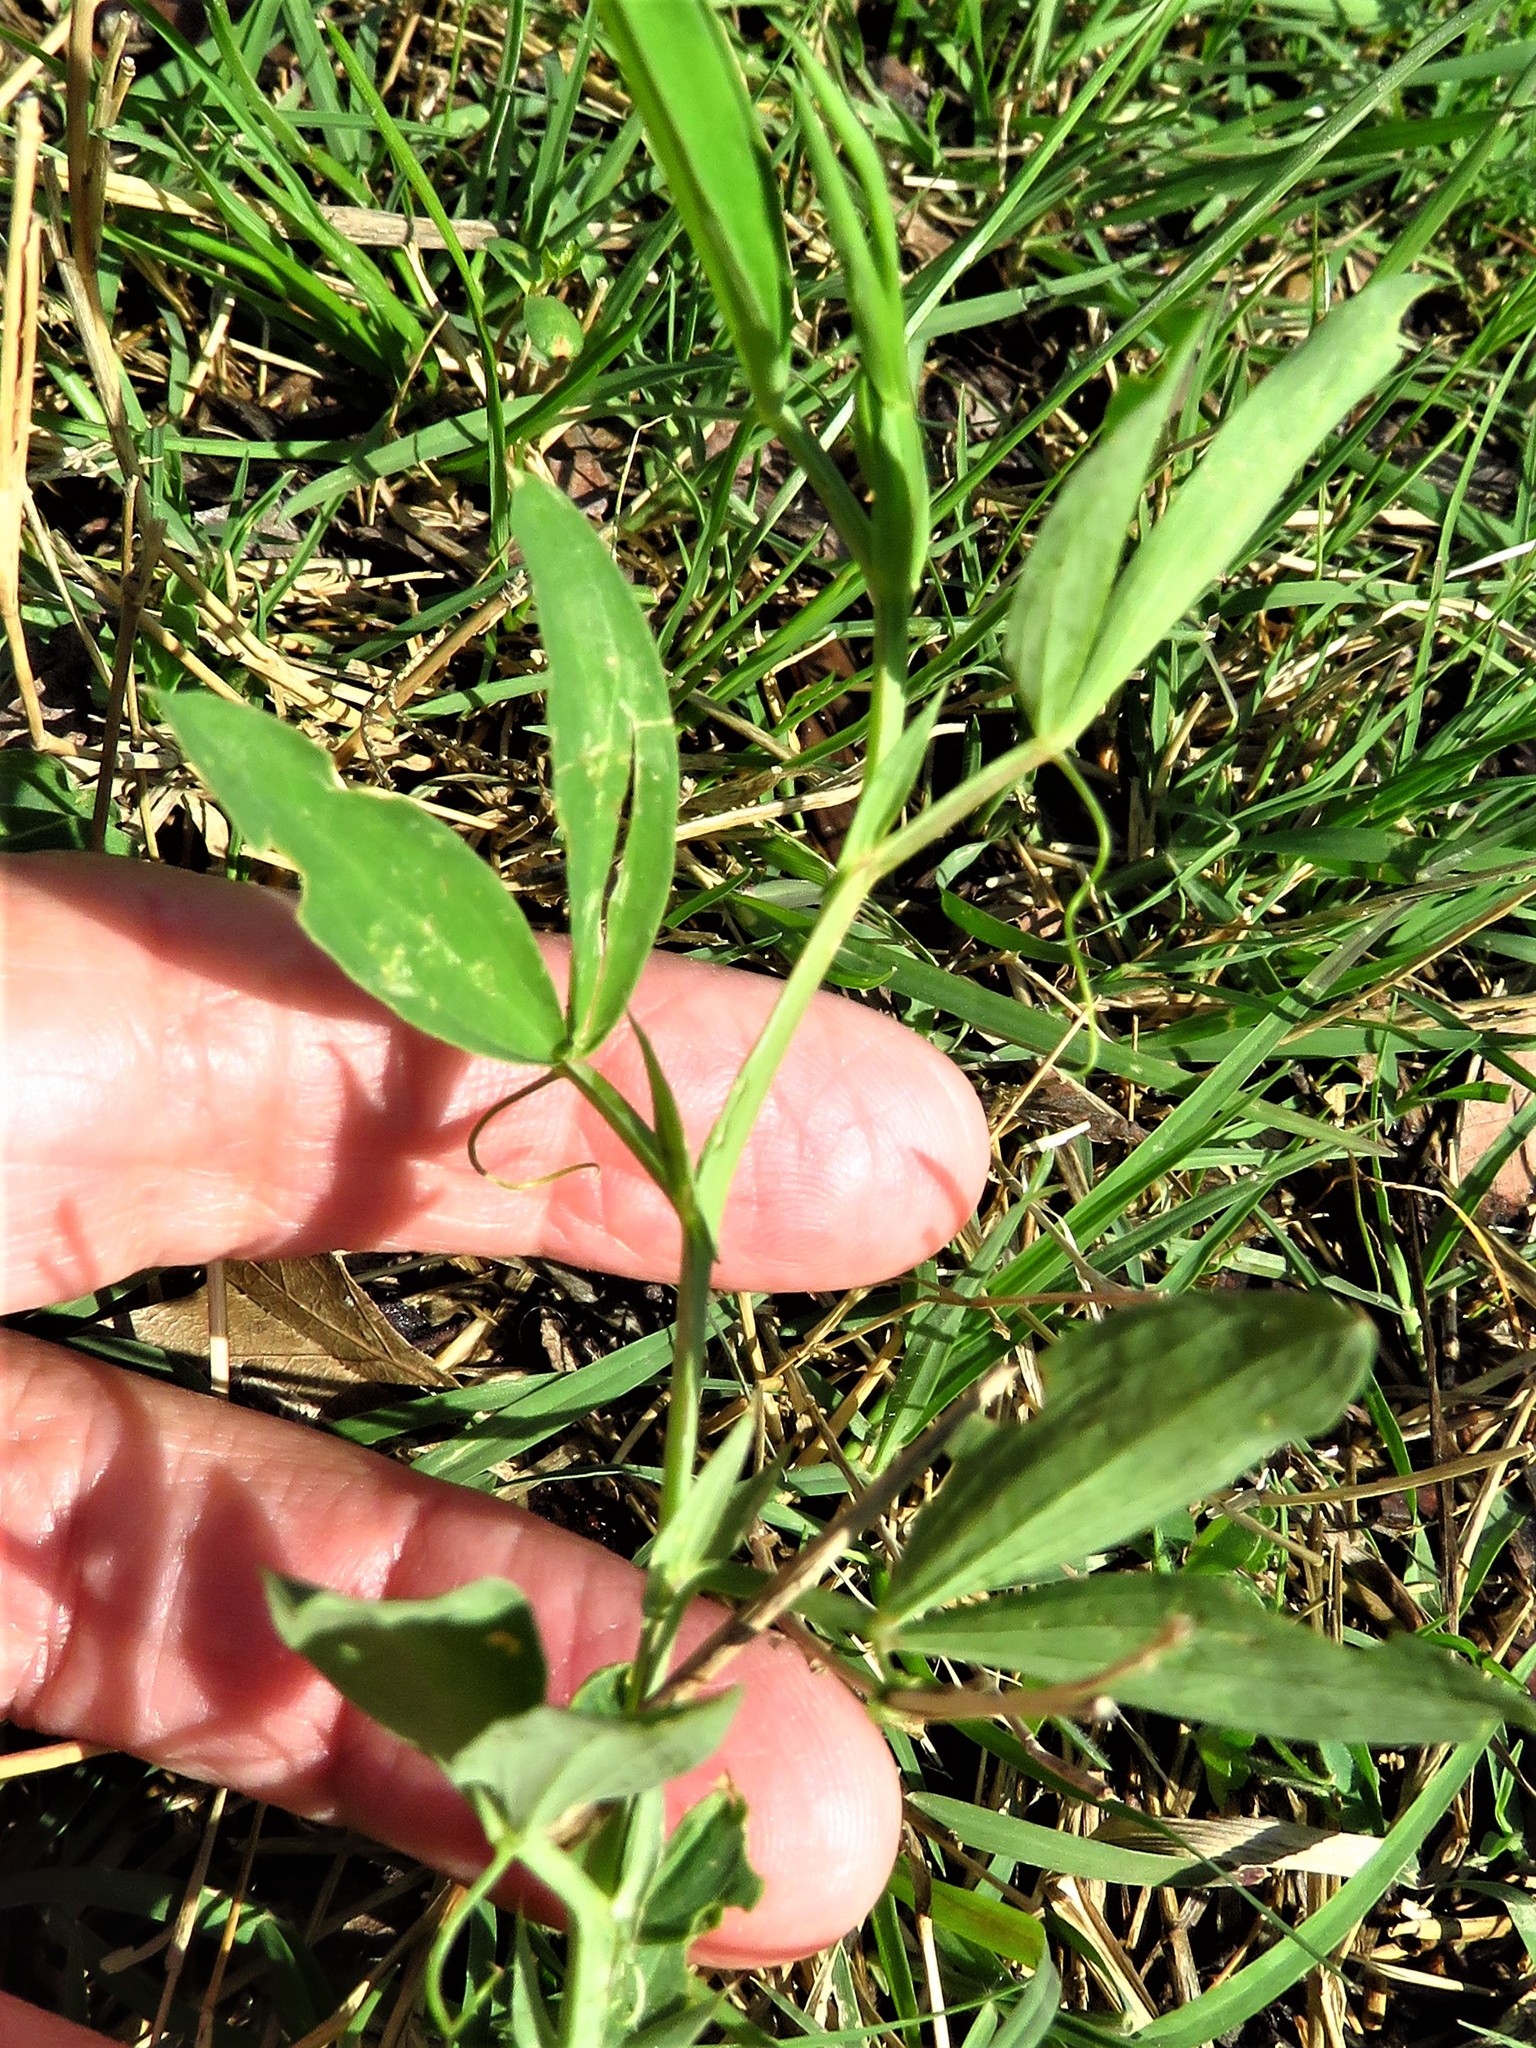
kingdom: Plantae
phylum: Tracheophyta
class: Magnoliopsida
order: Fabales
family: Fabaceae
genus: Lathyrus
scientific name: Lathyrus hirsutus
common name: Hairy vetchling
